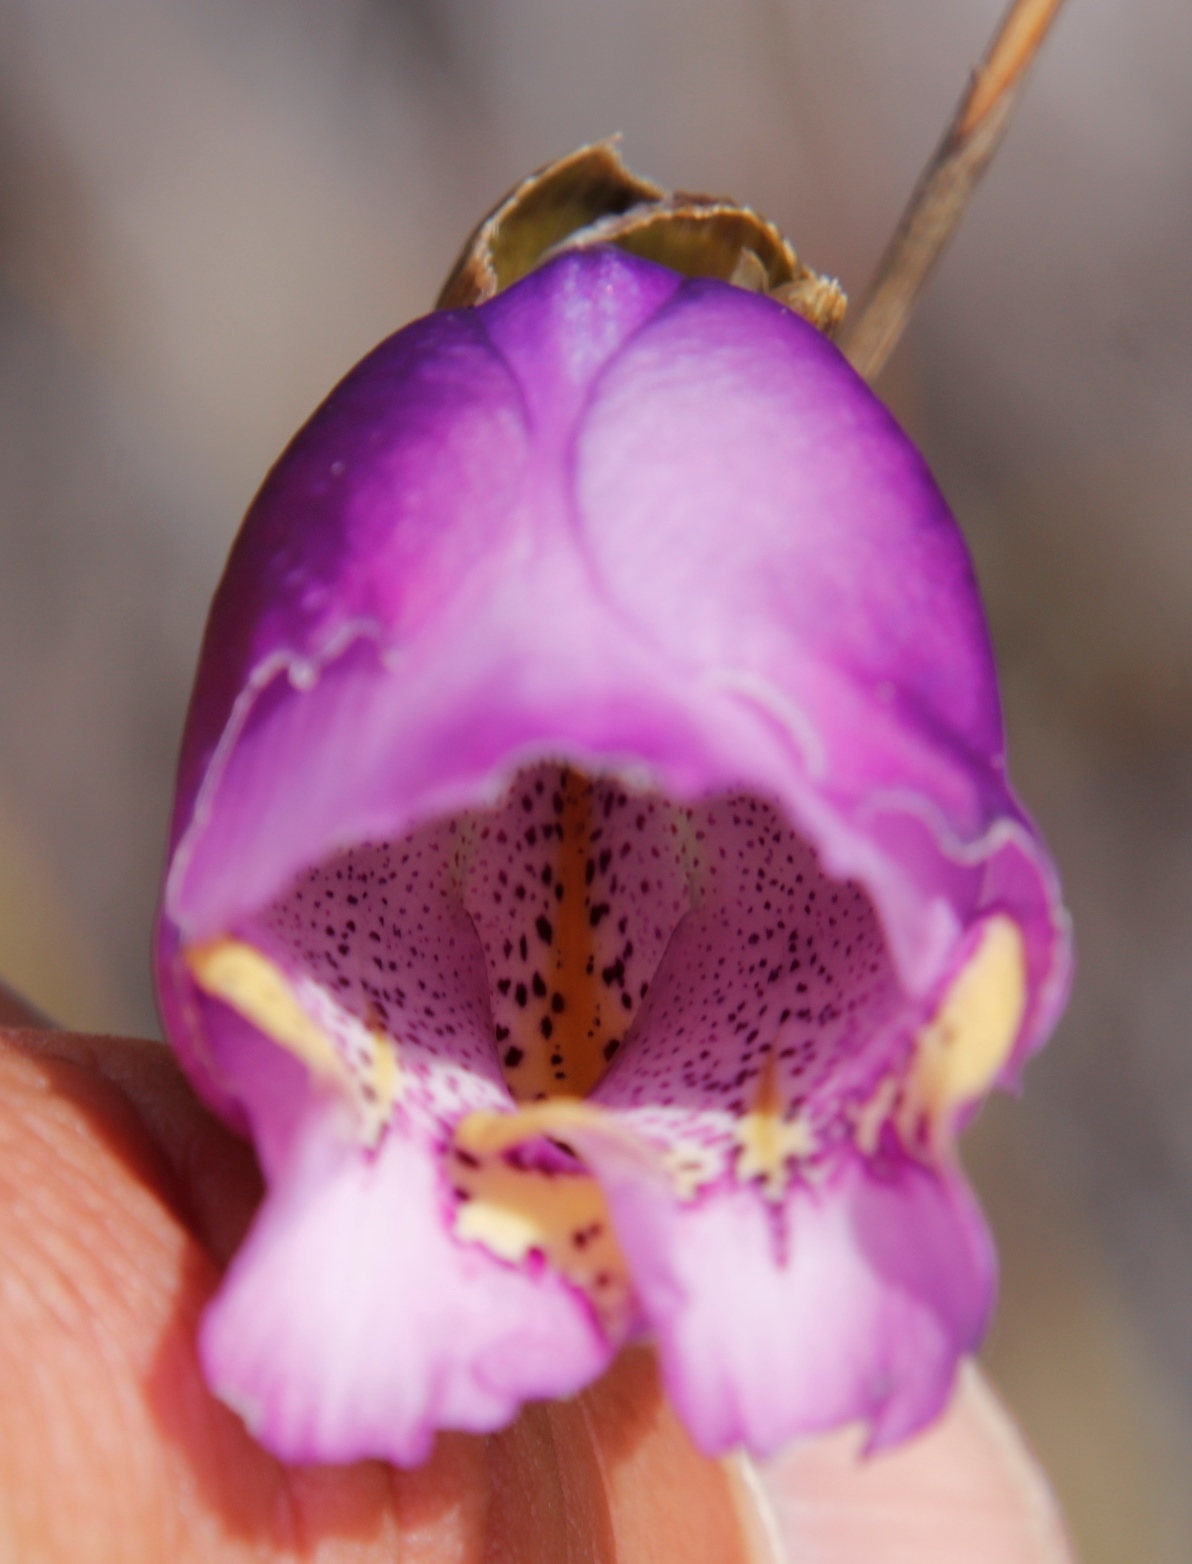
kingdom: Plantae
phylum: Tracheophyta
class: Liliopsida
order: Asparagales
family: Iridaceae
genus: Gladiolus
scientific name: Gladiolus bullatus
